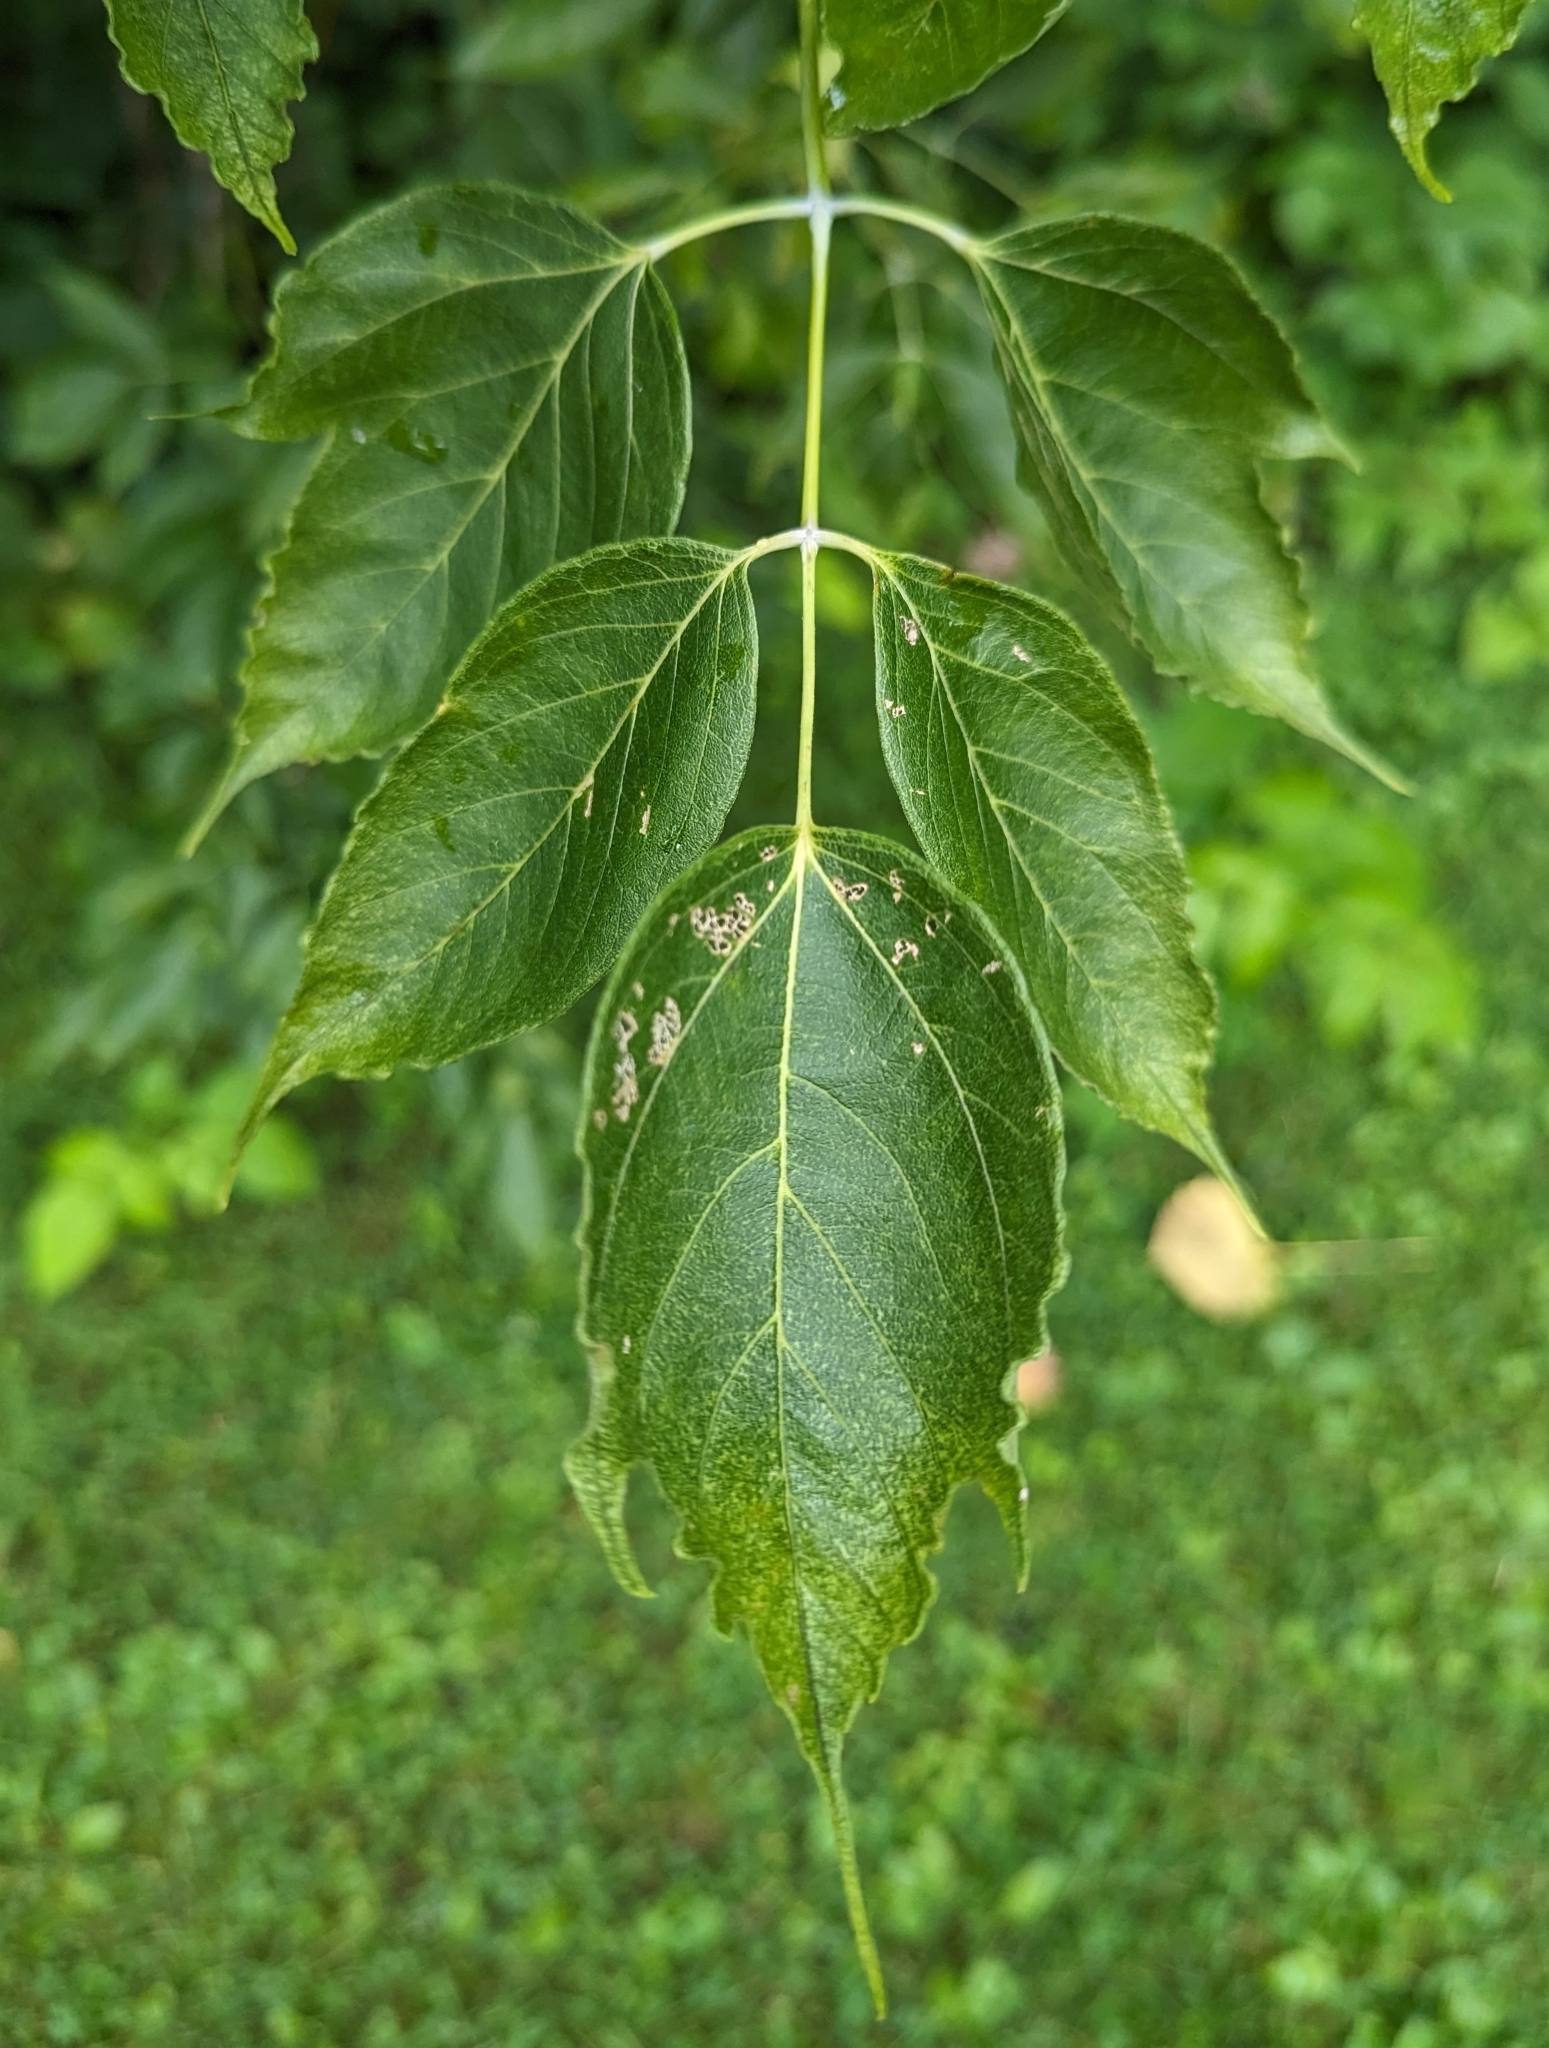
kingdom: Plantae
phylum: Tracheophyta
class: Magnoliopsida
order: Sapindales
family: Sapindaceae
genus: Acer
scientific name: Acer negundo
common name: Ashleaf maple
